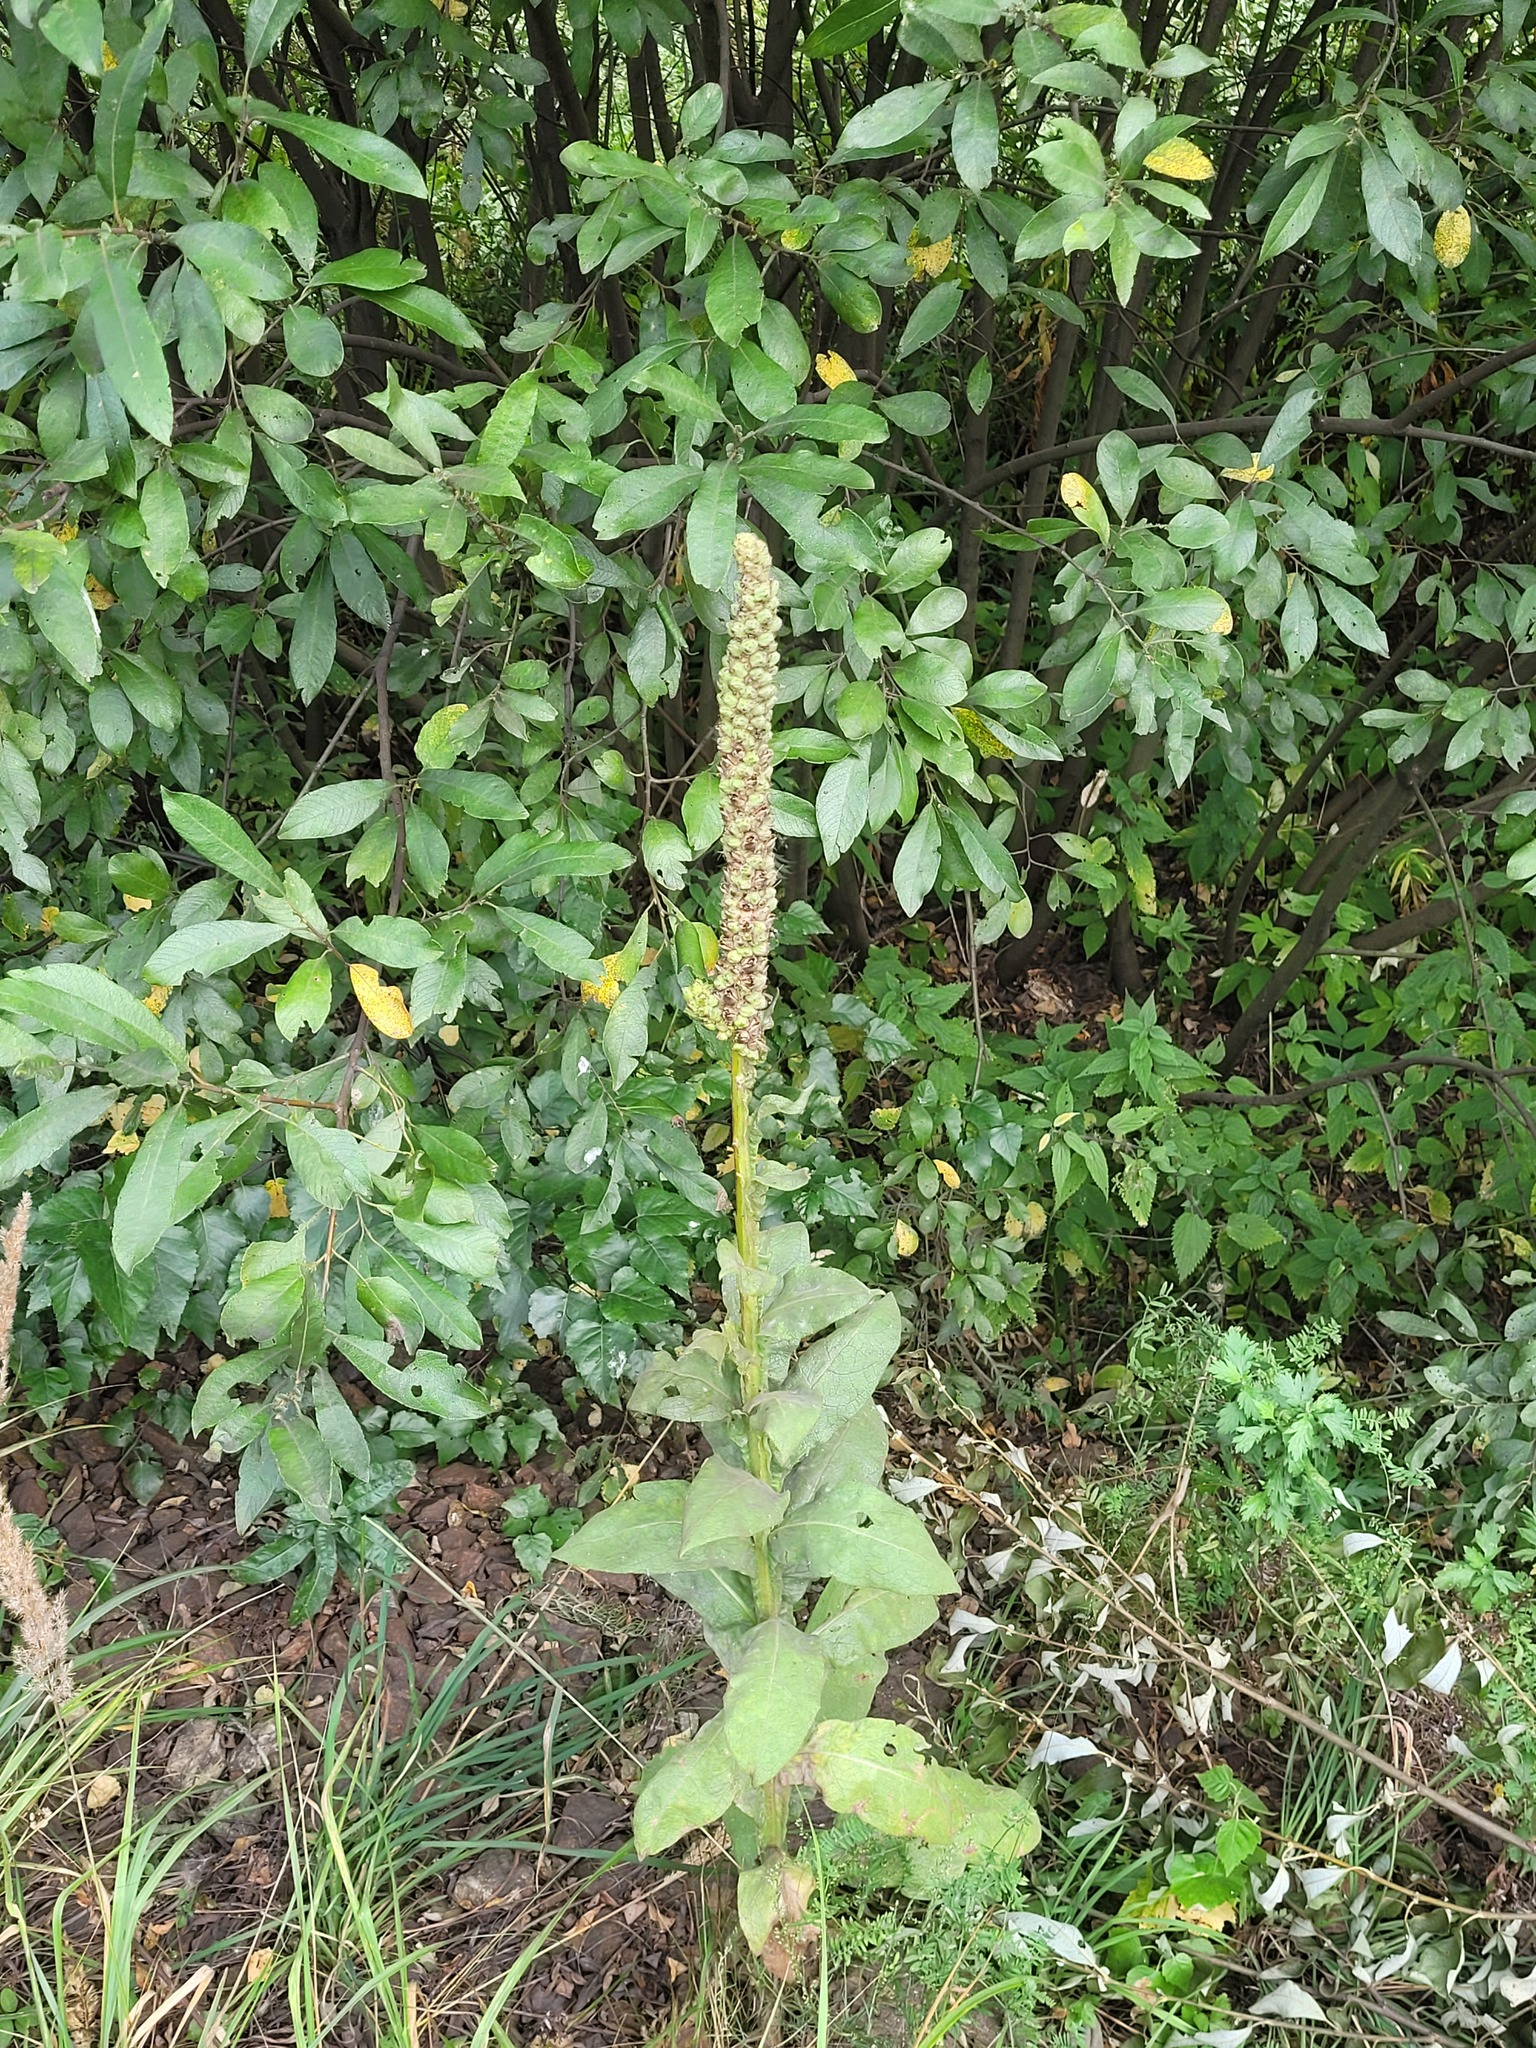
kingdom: Plantae
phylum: Tracheophyta
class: Magnoliopsida
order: Lamiales
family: Scrophulariaceae
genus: Verbascum
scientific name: Verbascum thapsus
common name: Common mullein
